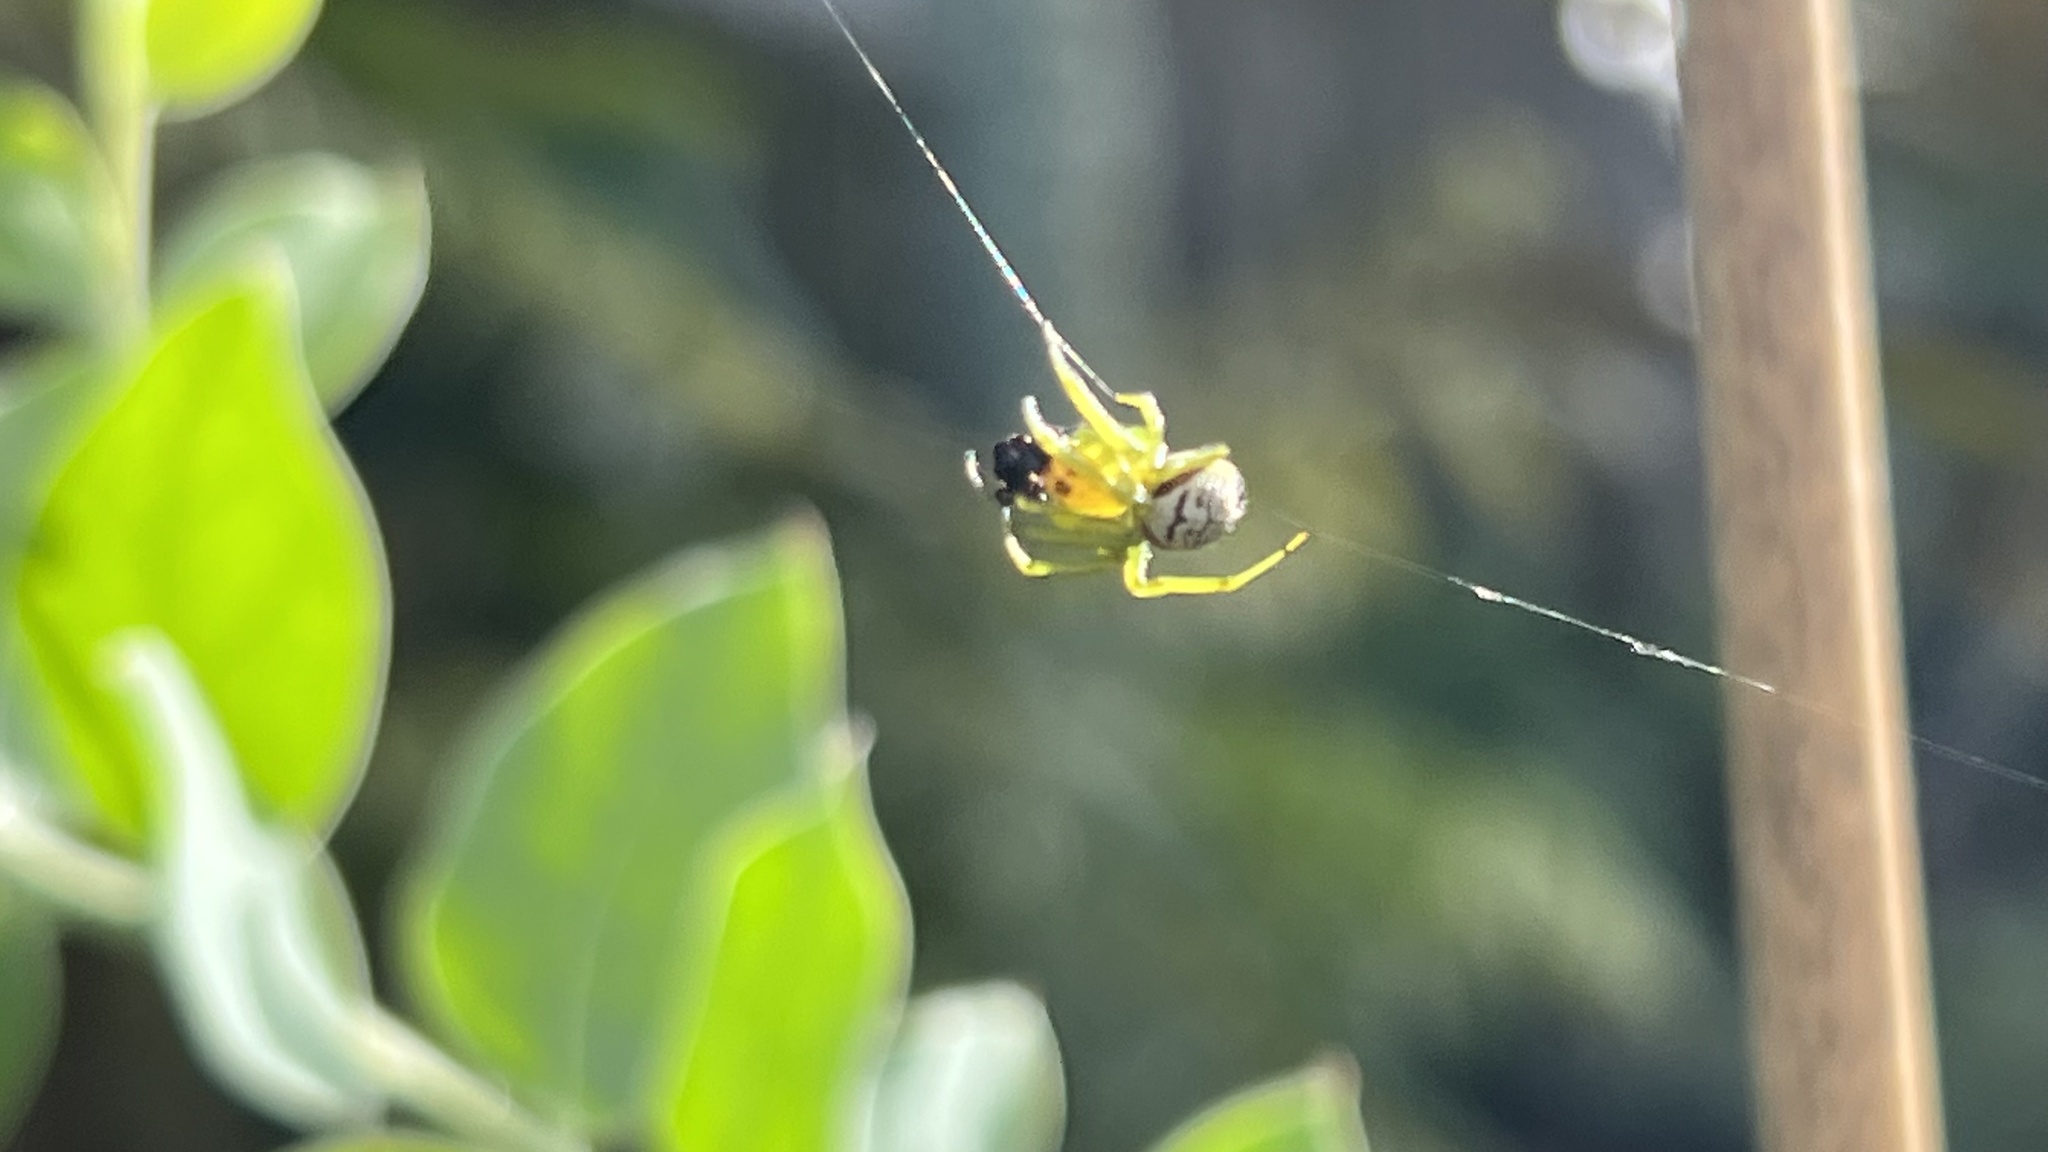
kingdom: Animalia
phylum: Arthropoda
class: Arachnida
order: Araneae
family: Araneidae
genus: Bijoaraneus
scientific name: Bijoaraneus praesignis
